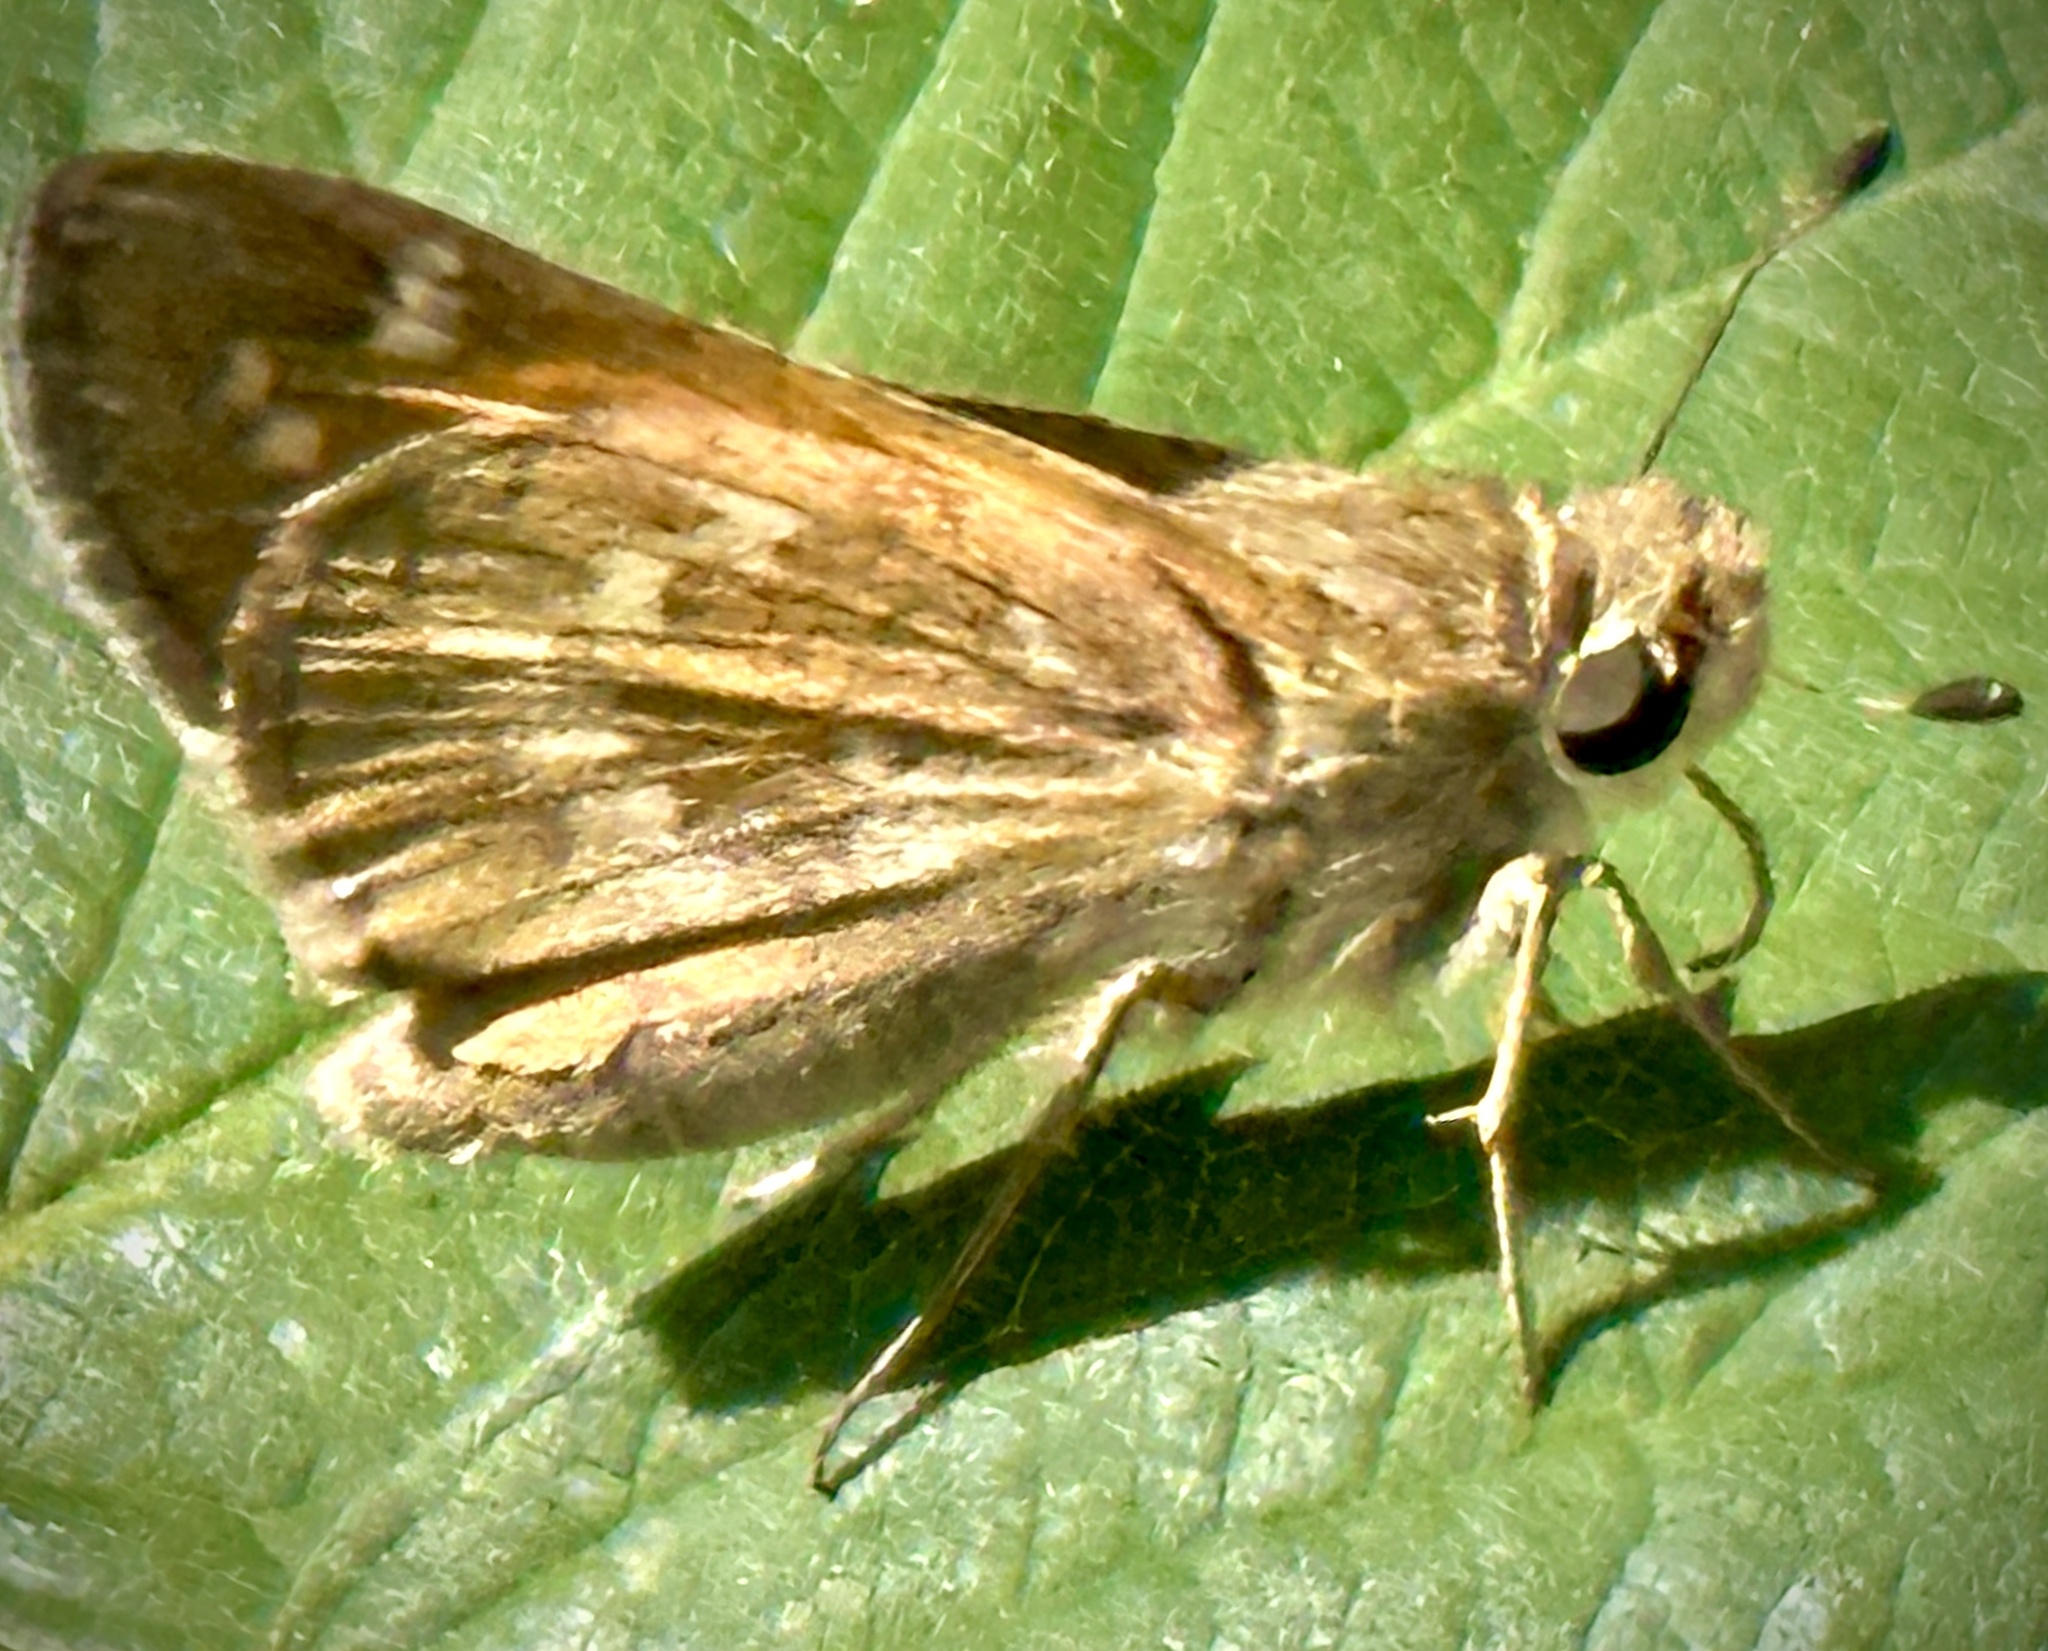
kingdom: Animalia
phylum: Arthropoda
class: Insecta
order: Lepidoptera
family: Hesperiidae
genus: Atalopedes
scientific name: Atalopedes
